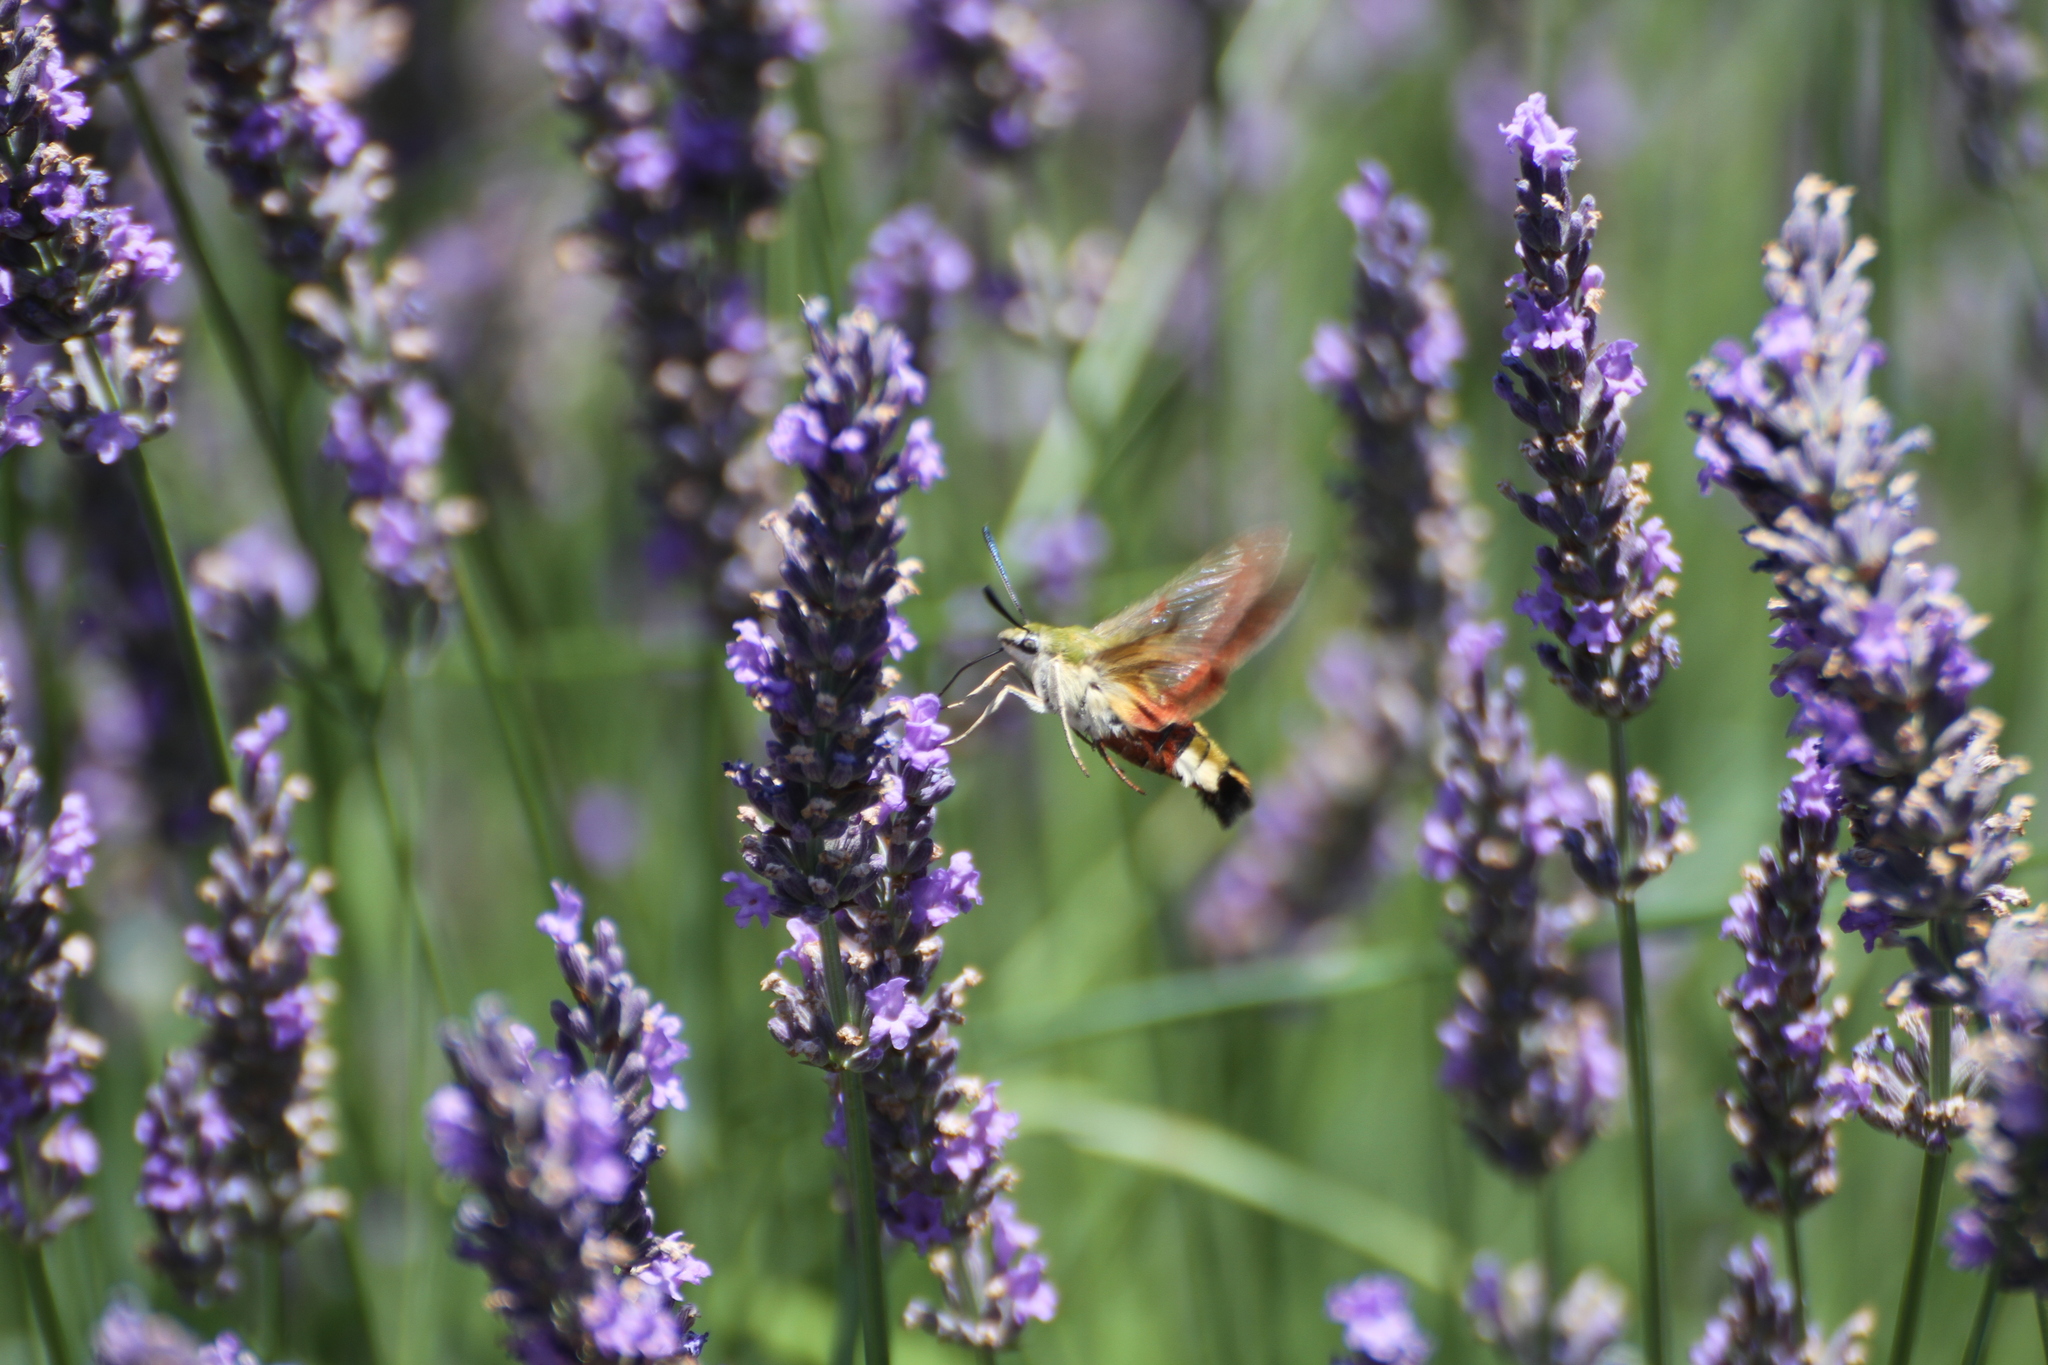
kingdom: Animalia
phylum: Arthropoda
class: Insecta
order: Lepidoptera
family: Sphingidae
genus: Hemaris
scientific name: Hemaris fuciformis
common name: Broad-bordered bee hawk-moth
